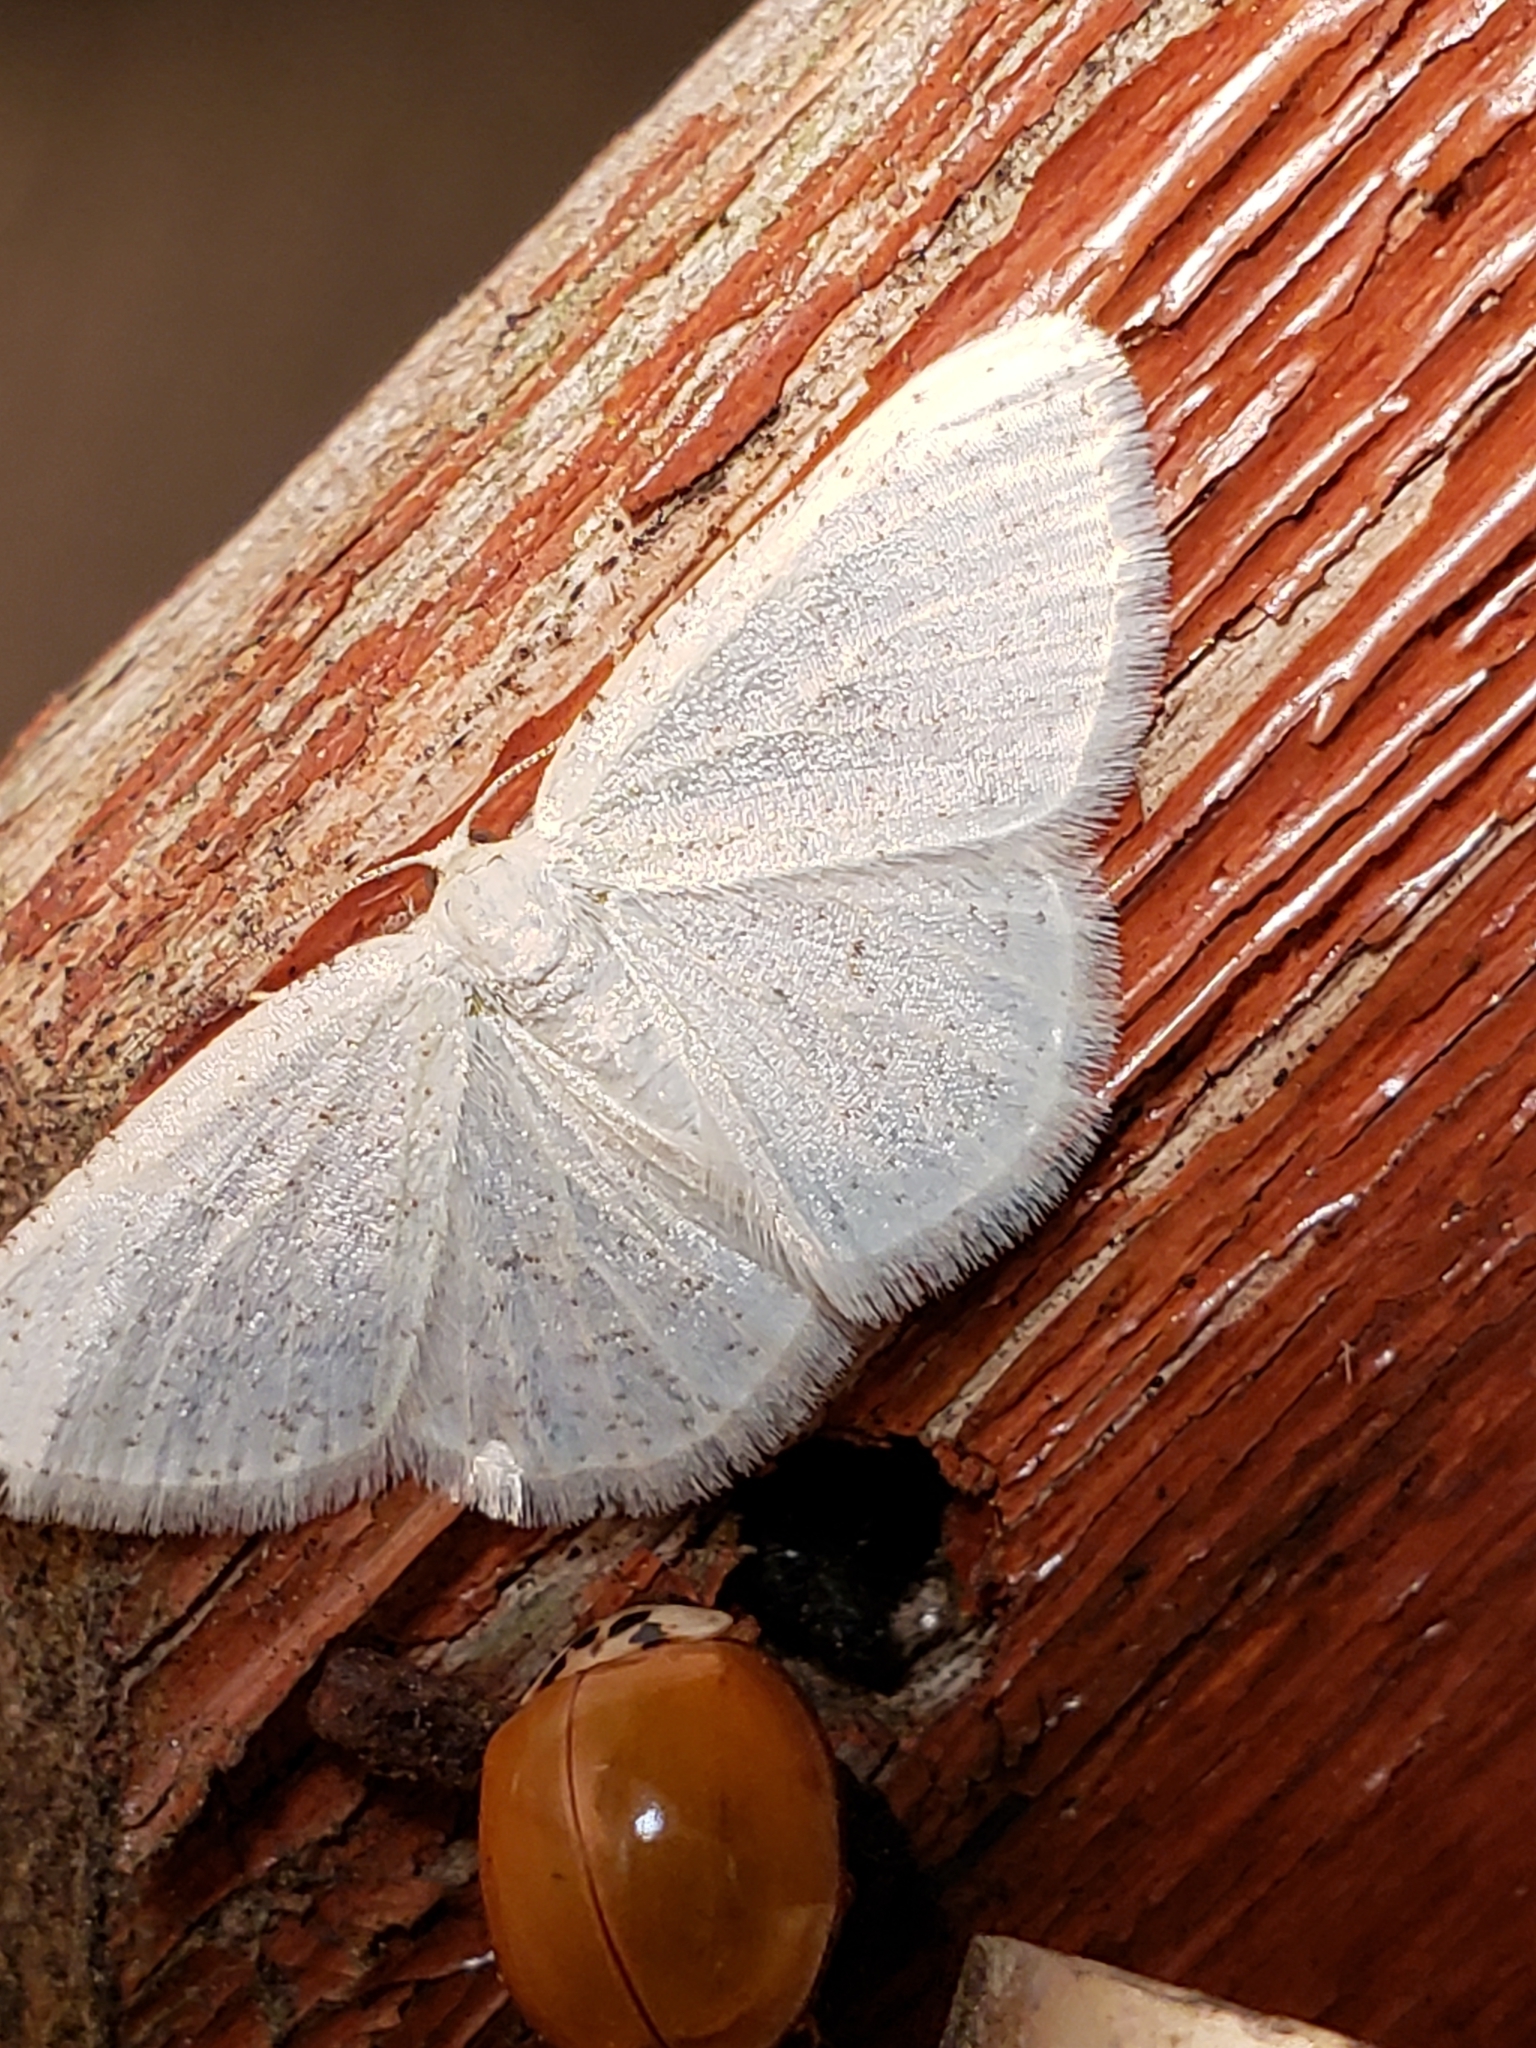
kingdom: Animalia
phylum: Arthropoda
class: Insecta
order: Lepidoptera
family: Geometridae
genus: Protitame
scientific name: Protitame virginalis
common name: Virgin moth
